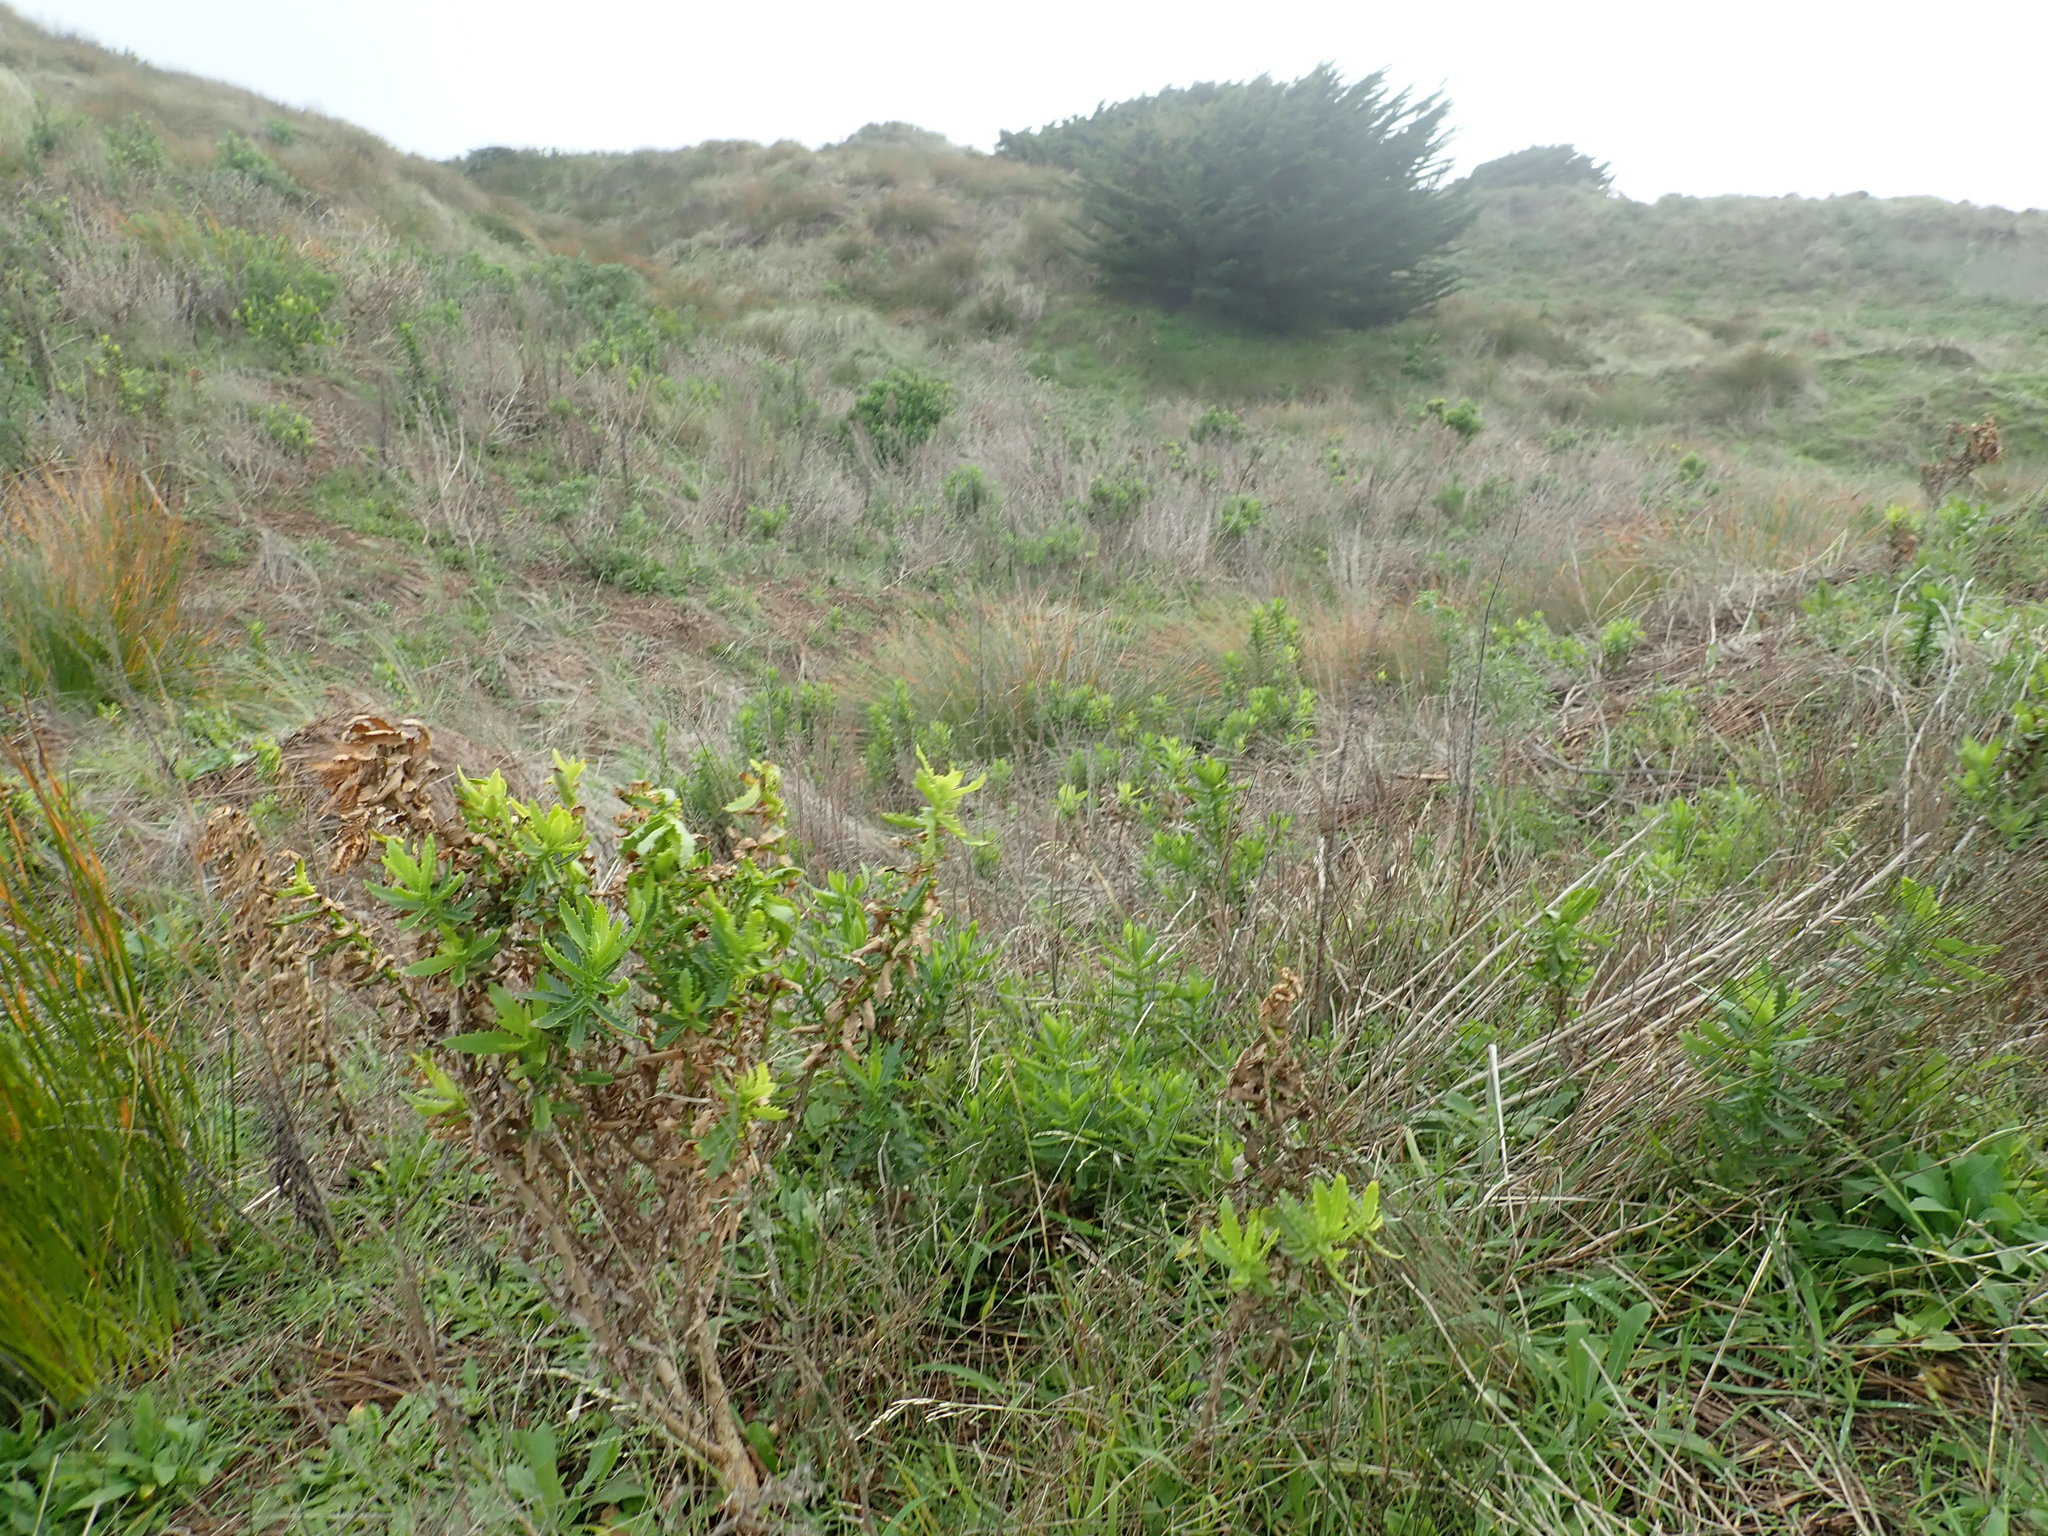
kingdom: Plantae
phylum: Tracheophyta
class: Magnoliopsida
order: Asterales
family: Asteraceae
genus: Senecio
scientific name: Senecio glastifolius
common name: Woad-leaved ragwort
